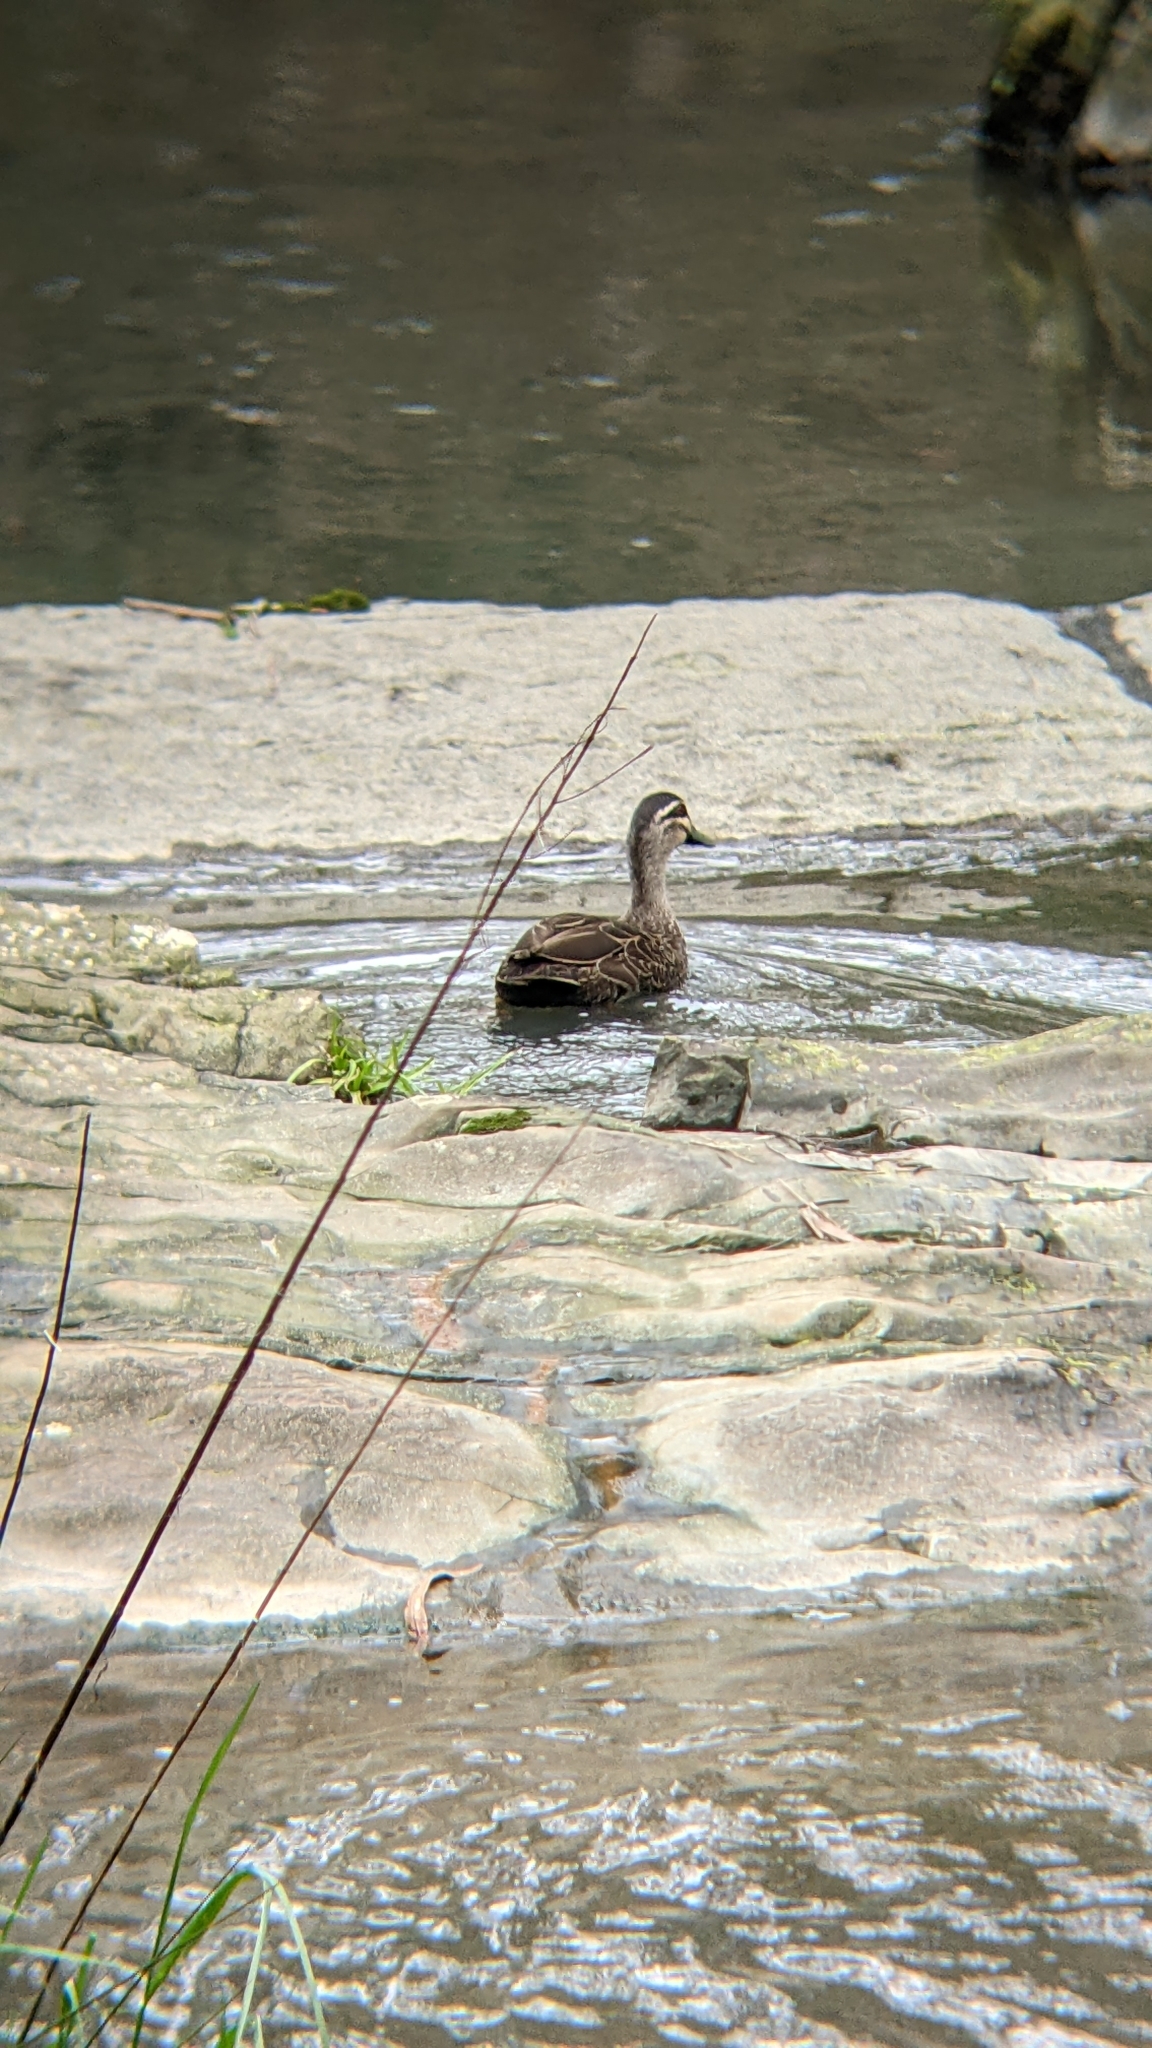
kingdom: Animalia
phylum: Chordata
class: Aves
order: Anseriformes
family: Anatidae
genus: Anas
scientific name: Anas superciliosa
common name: Pacific black duck
